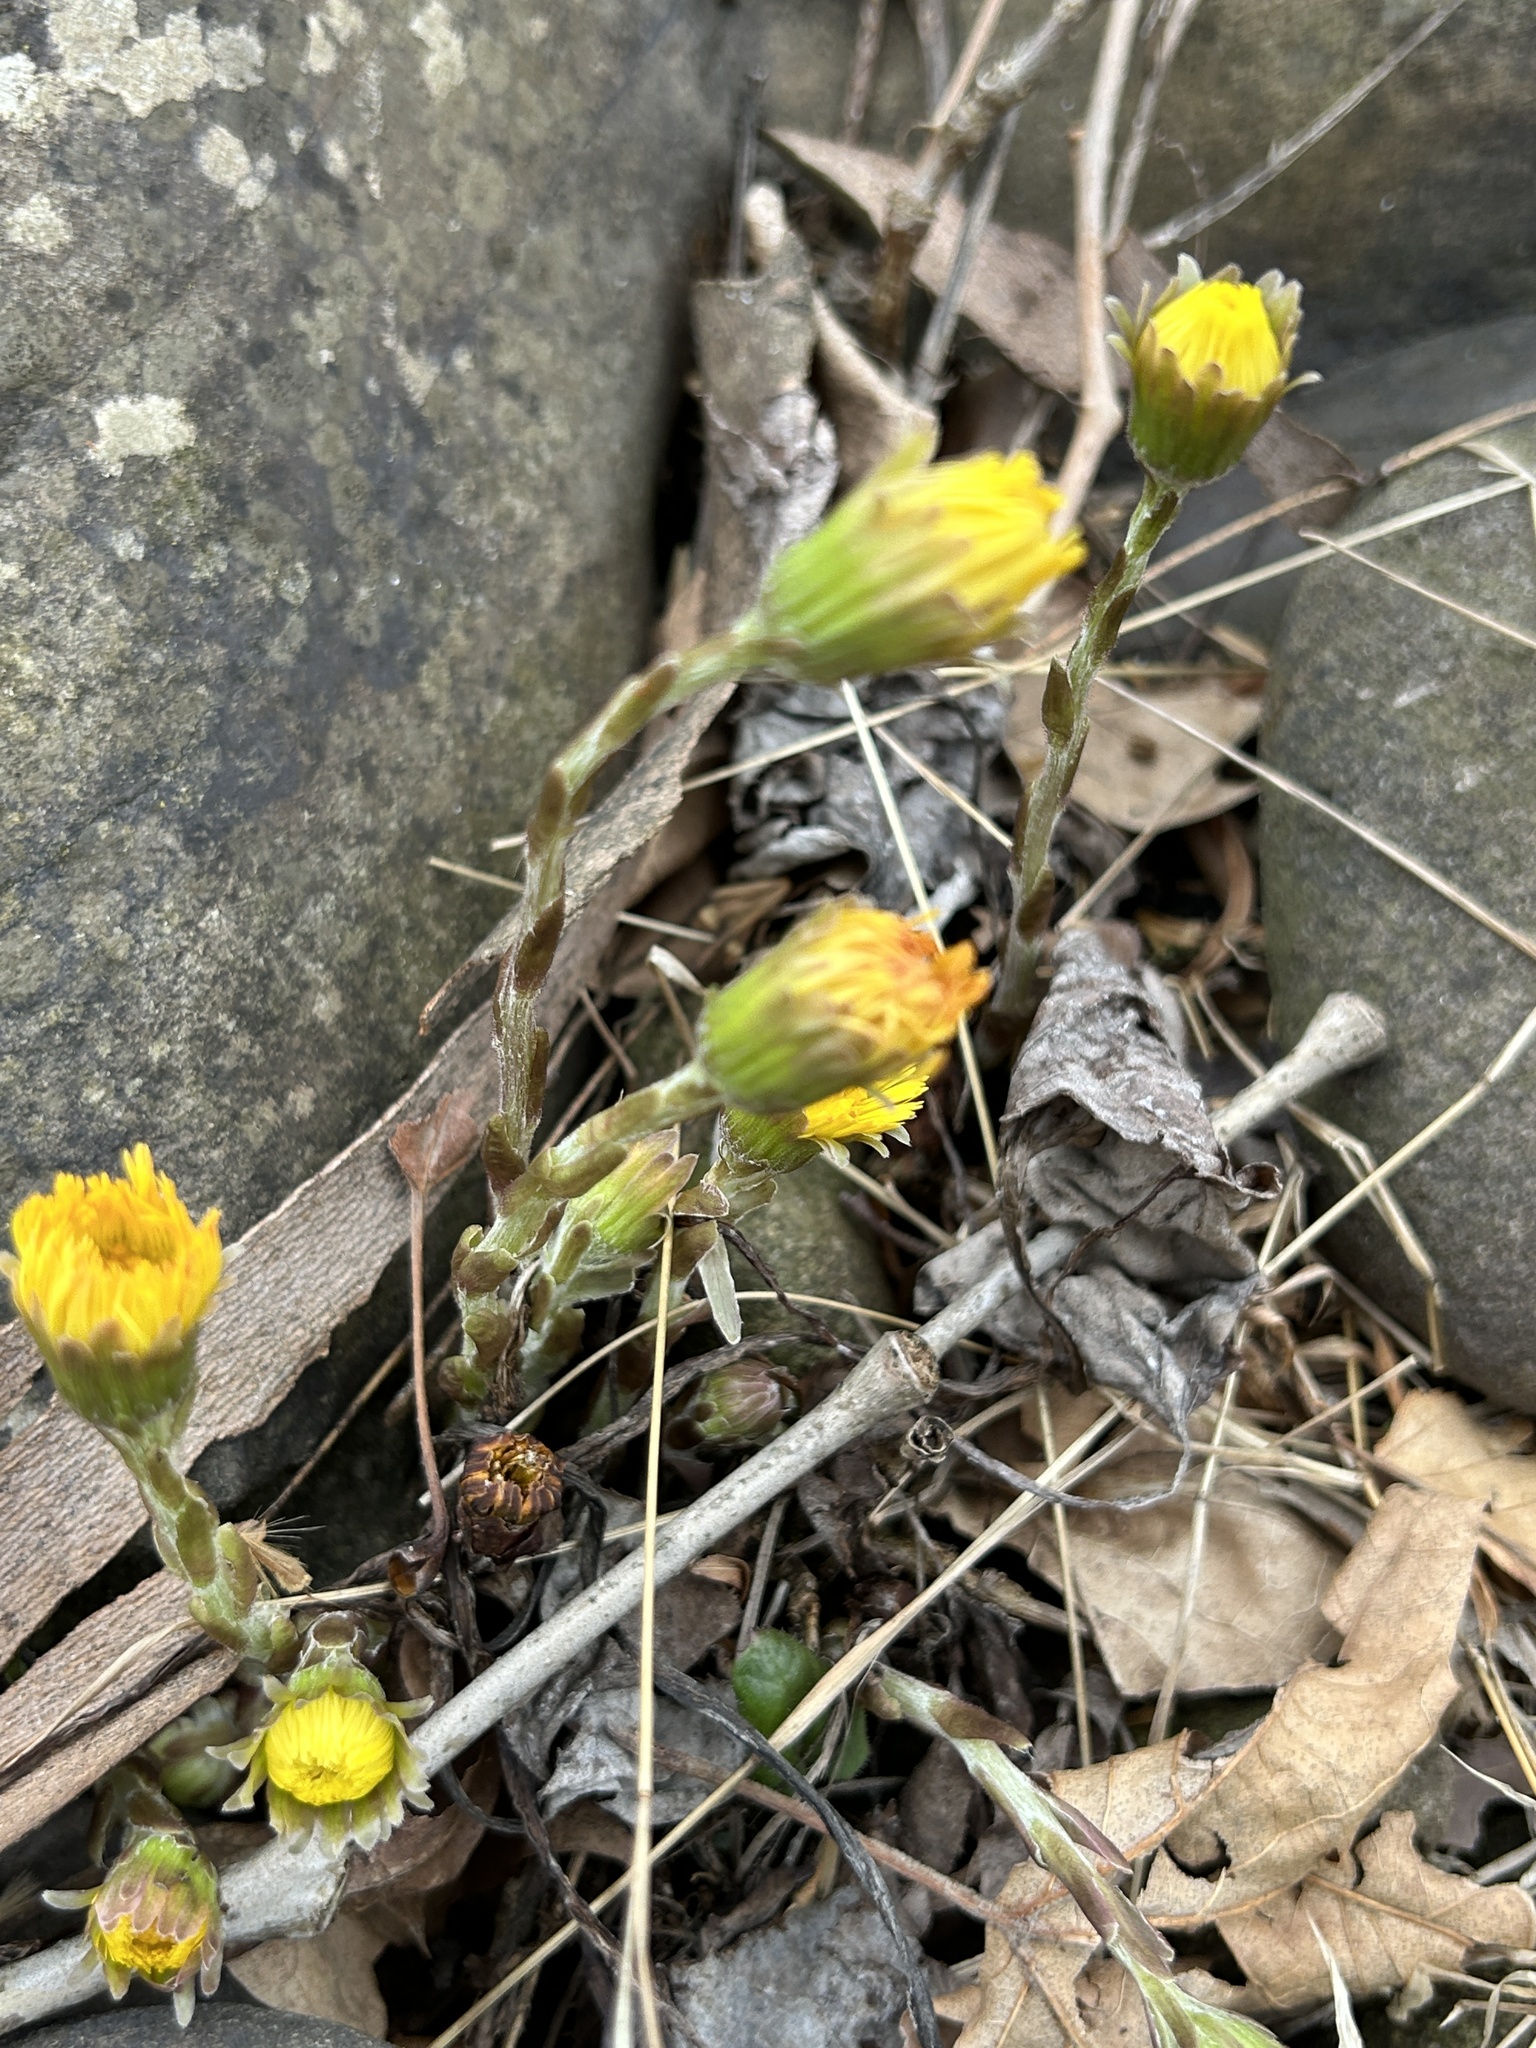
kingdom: Plantae
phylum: Tracheophyta
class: Magnoliopsida
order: Asterales
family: Asteraceae
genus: Tussilago
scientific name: Tussilago farfara
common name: Coltsfoot
